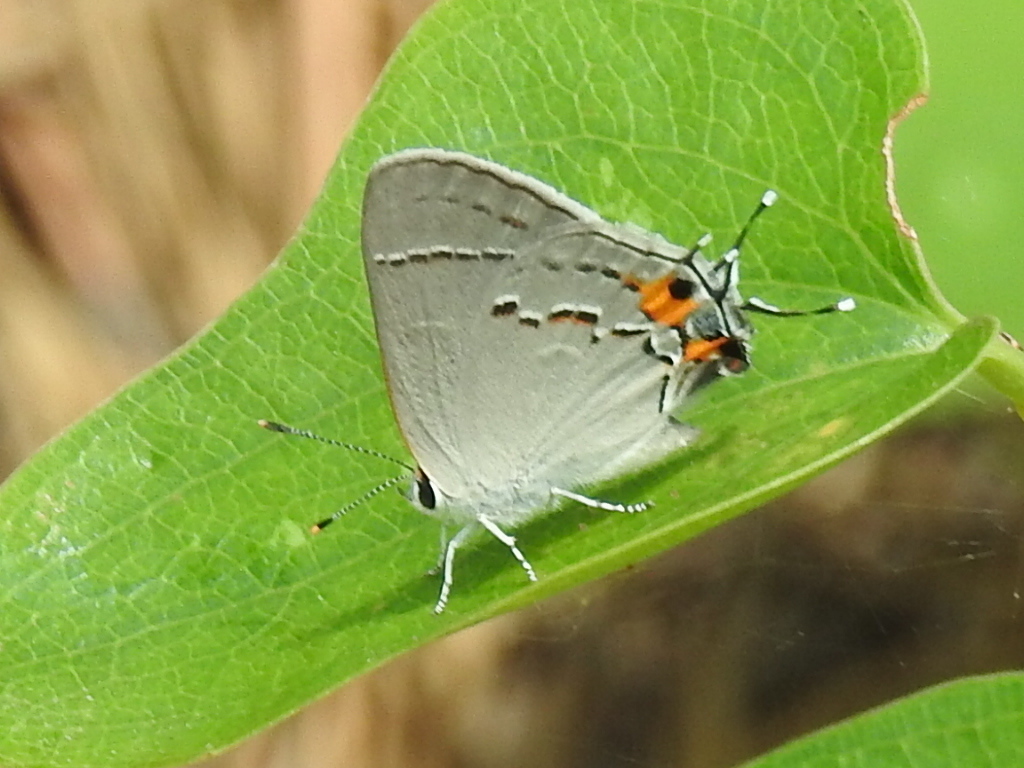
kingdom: Animalia
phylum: Arthropoda
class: Insecta
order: Lepidoptera
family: Lycaenidae
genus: Strymon
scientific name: Strymon melinus
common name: Gray hairstreak
